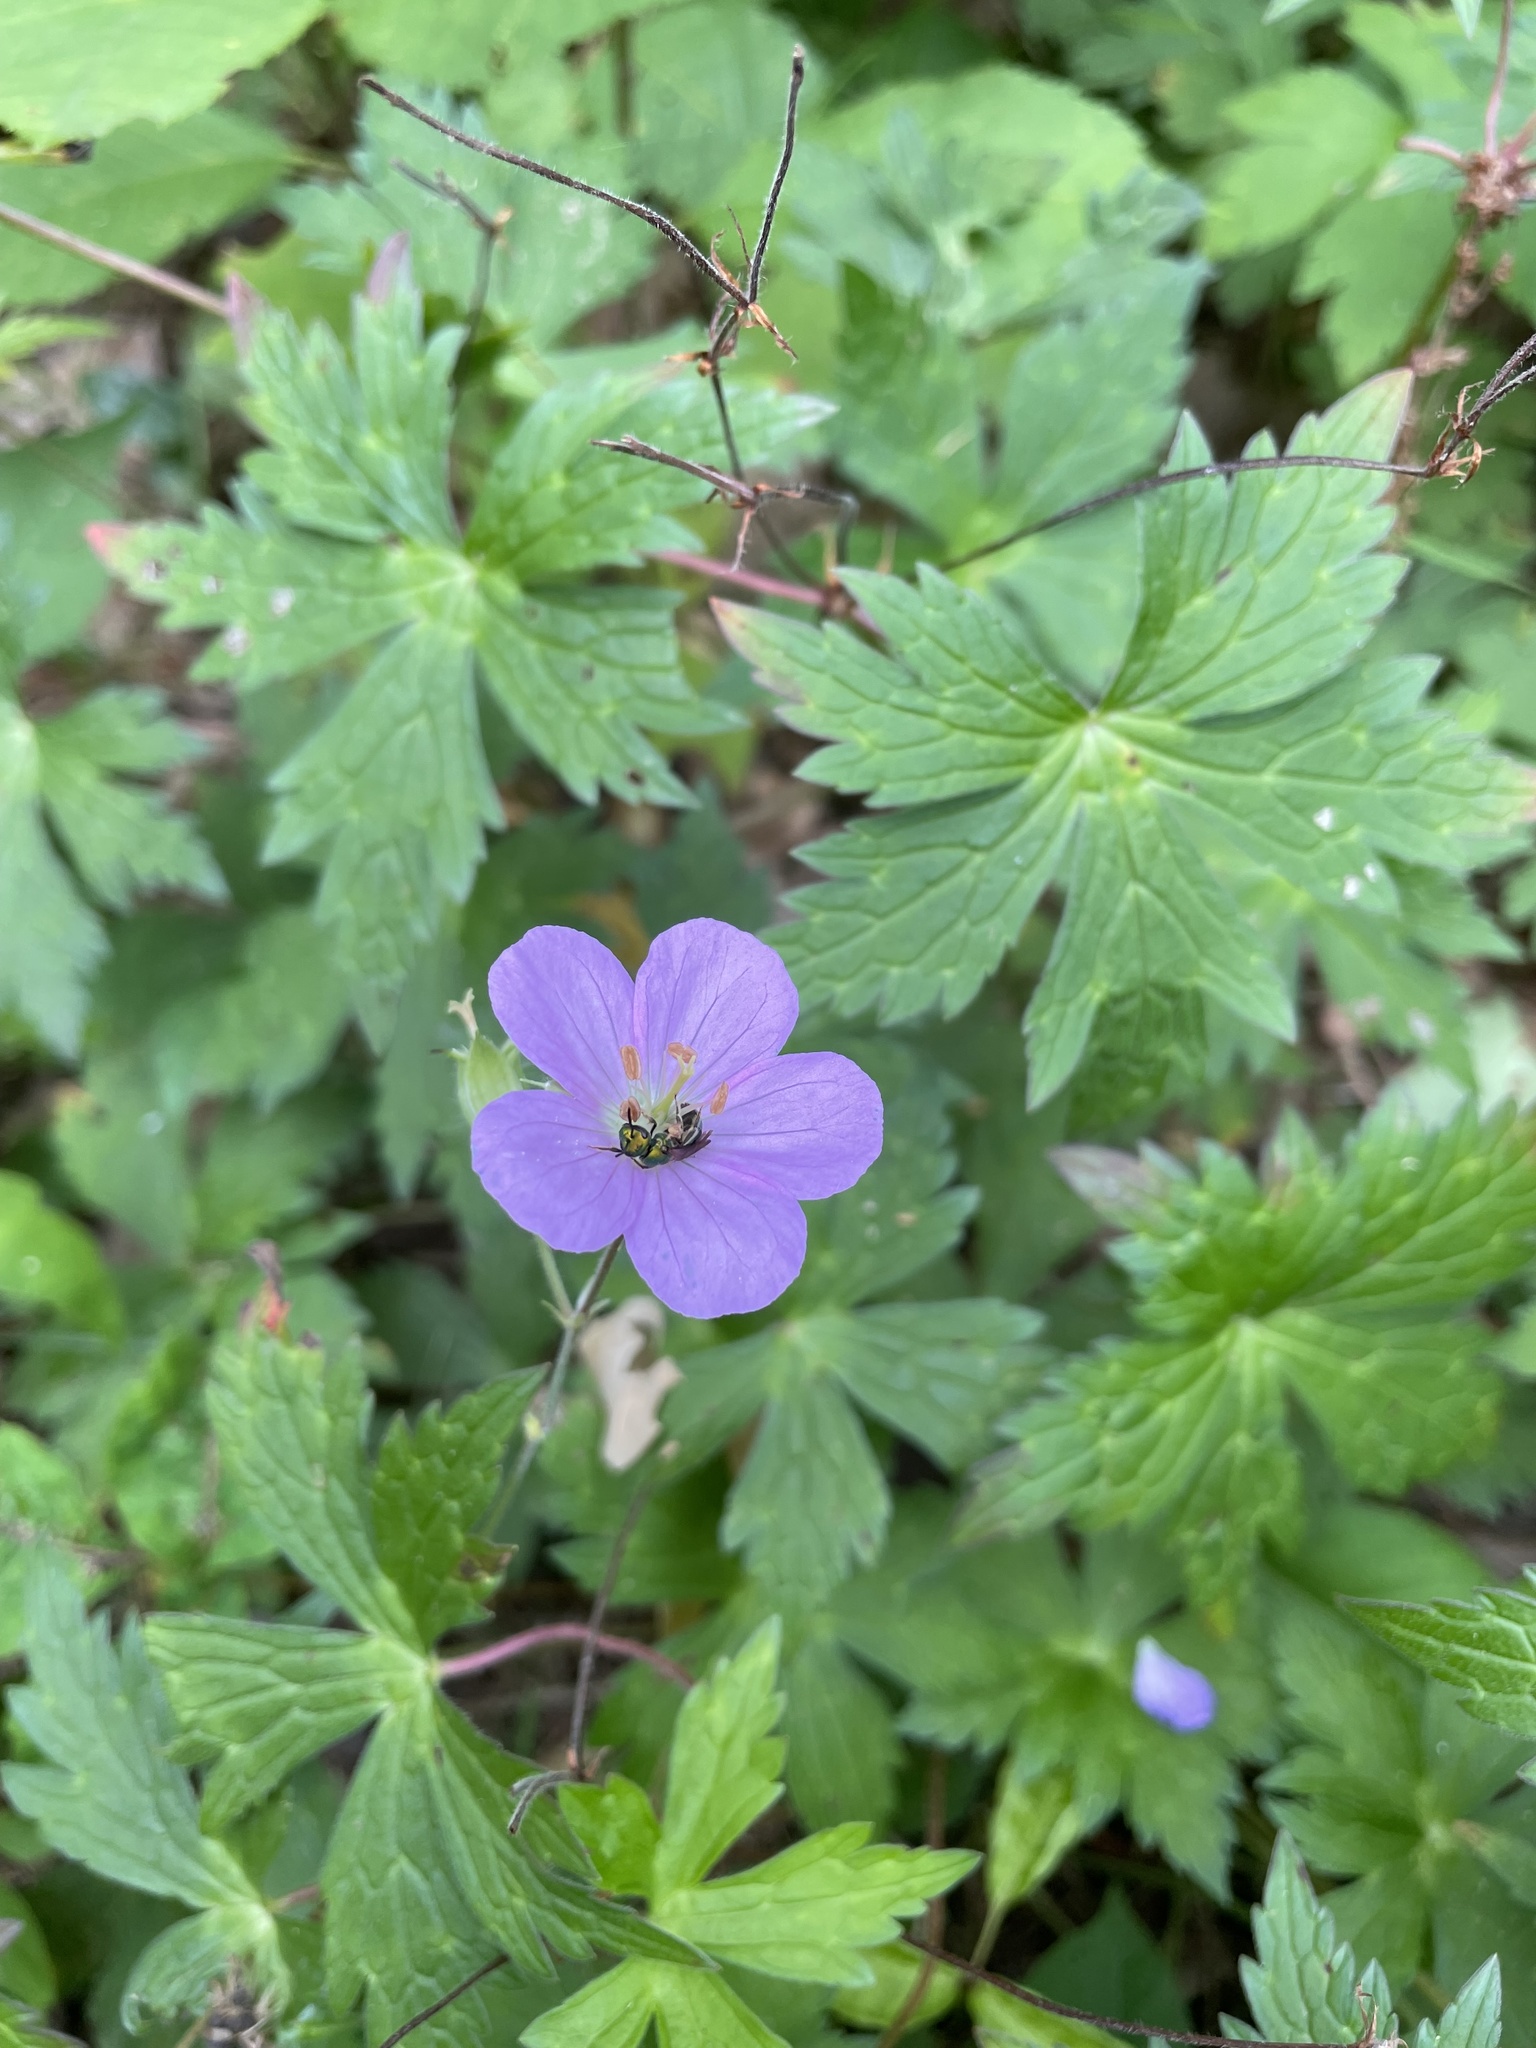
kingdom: Plantae
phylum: Tracheophyta
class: Magnoliopsida
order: Geraniales
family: Geraniaceae
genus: Geranium
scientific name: Geranium maculatum
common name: Spotted geranium
